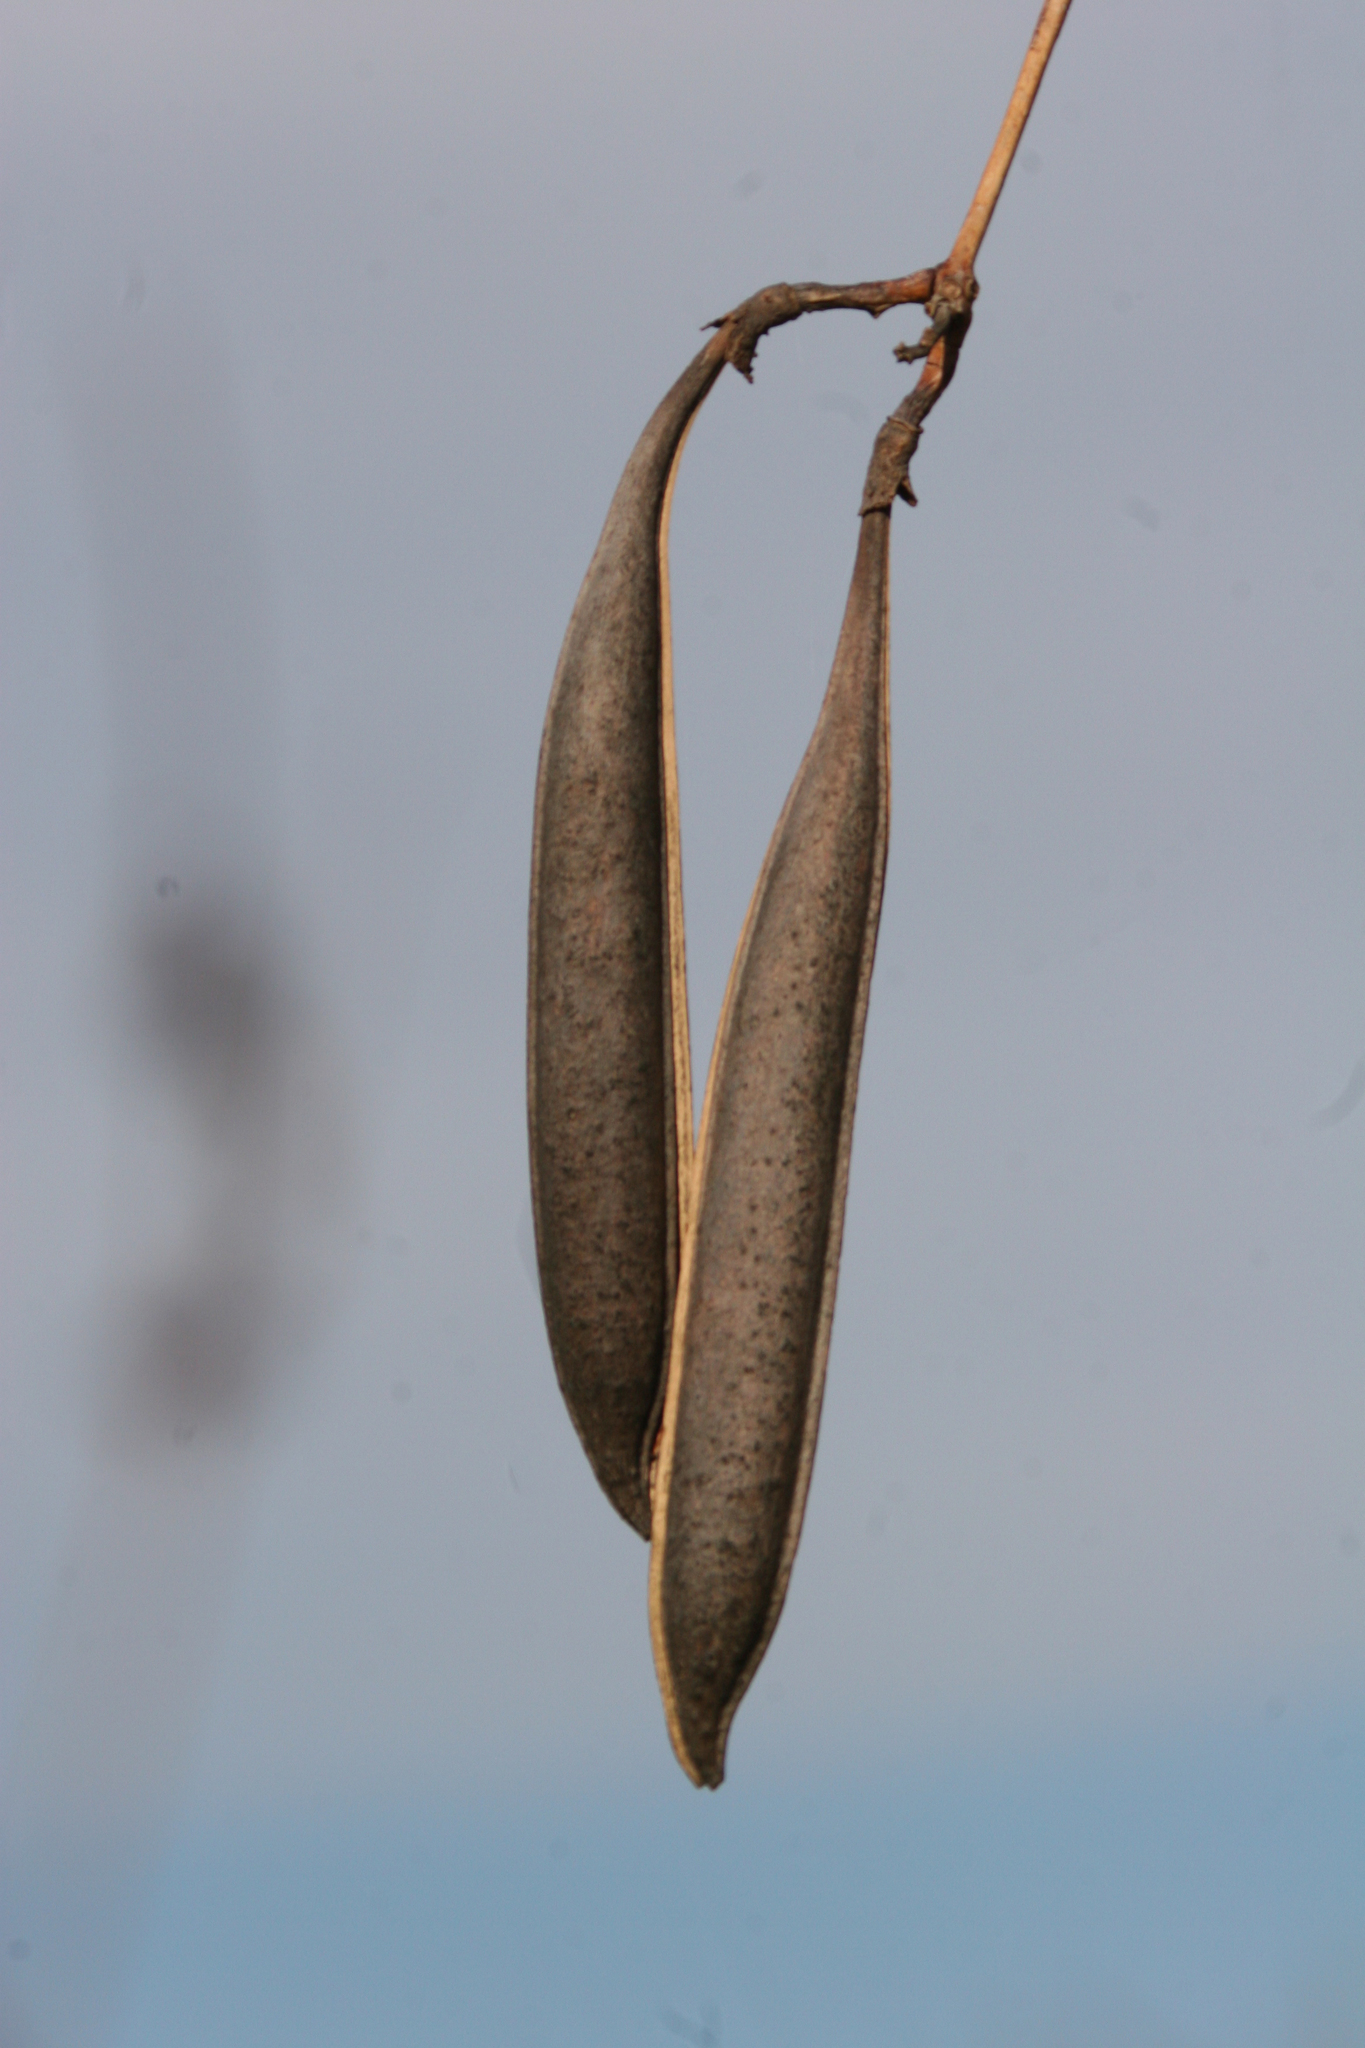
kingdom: Plantae
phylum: Tracheophyta
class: Magnoliopsida
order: Lamiales
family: Bignoniaceae
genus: Campsis
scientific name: Campsis radicans
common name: Trumpet-creeper
